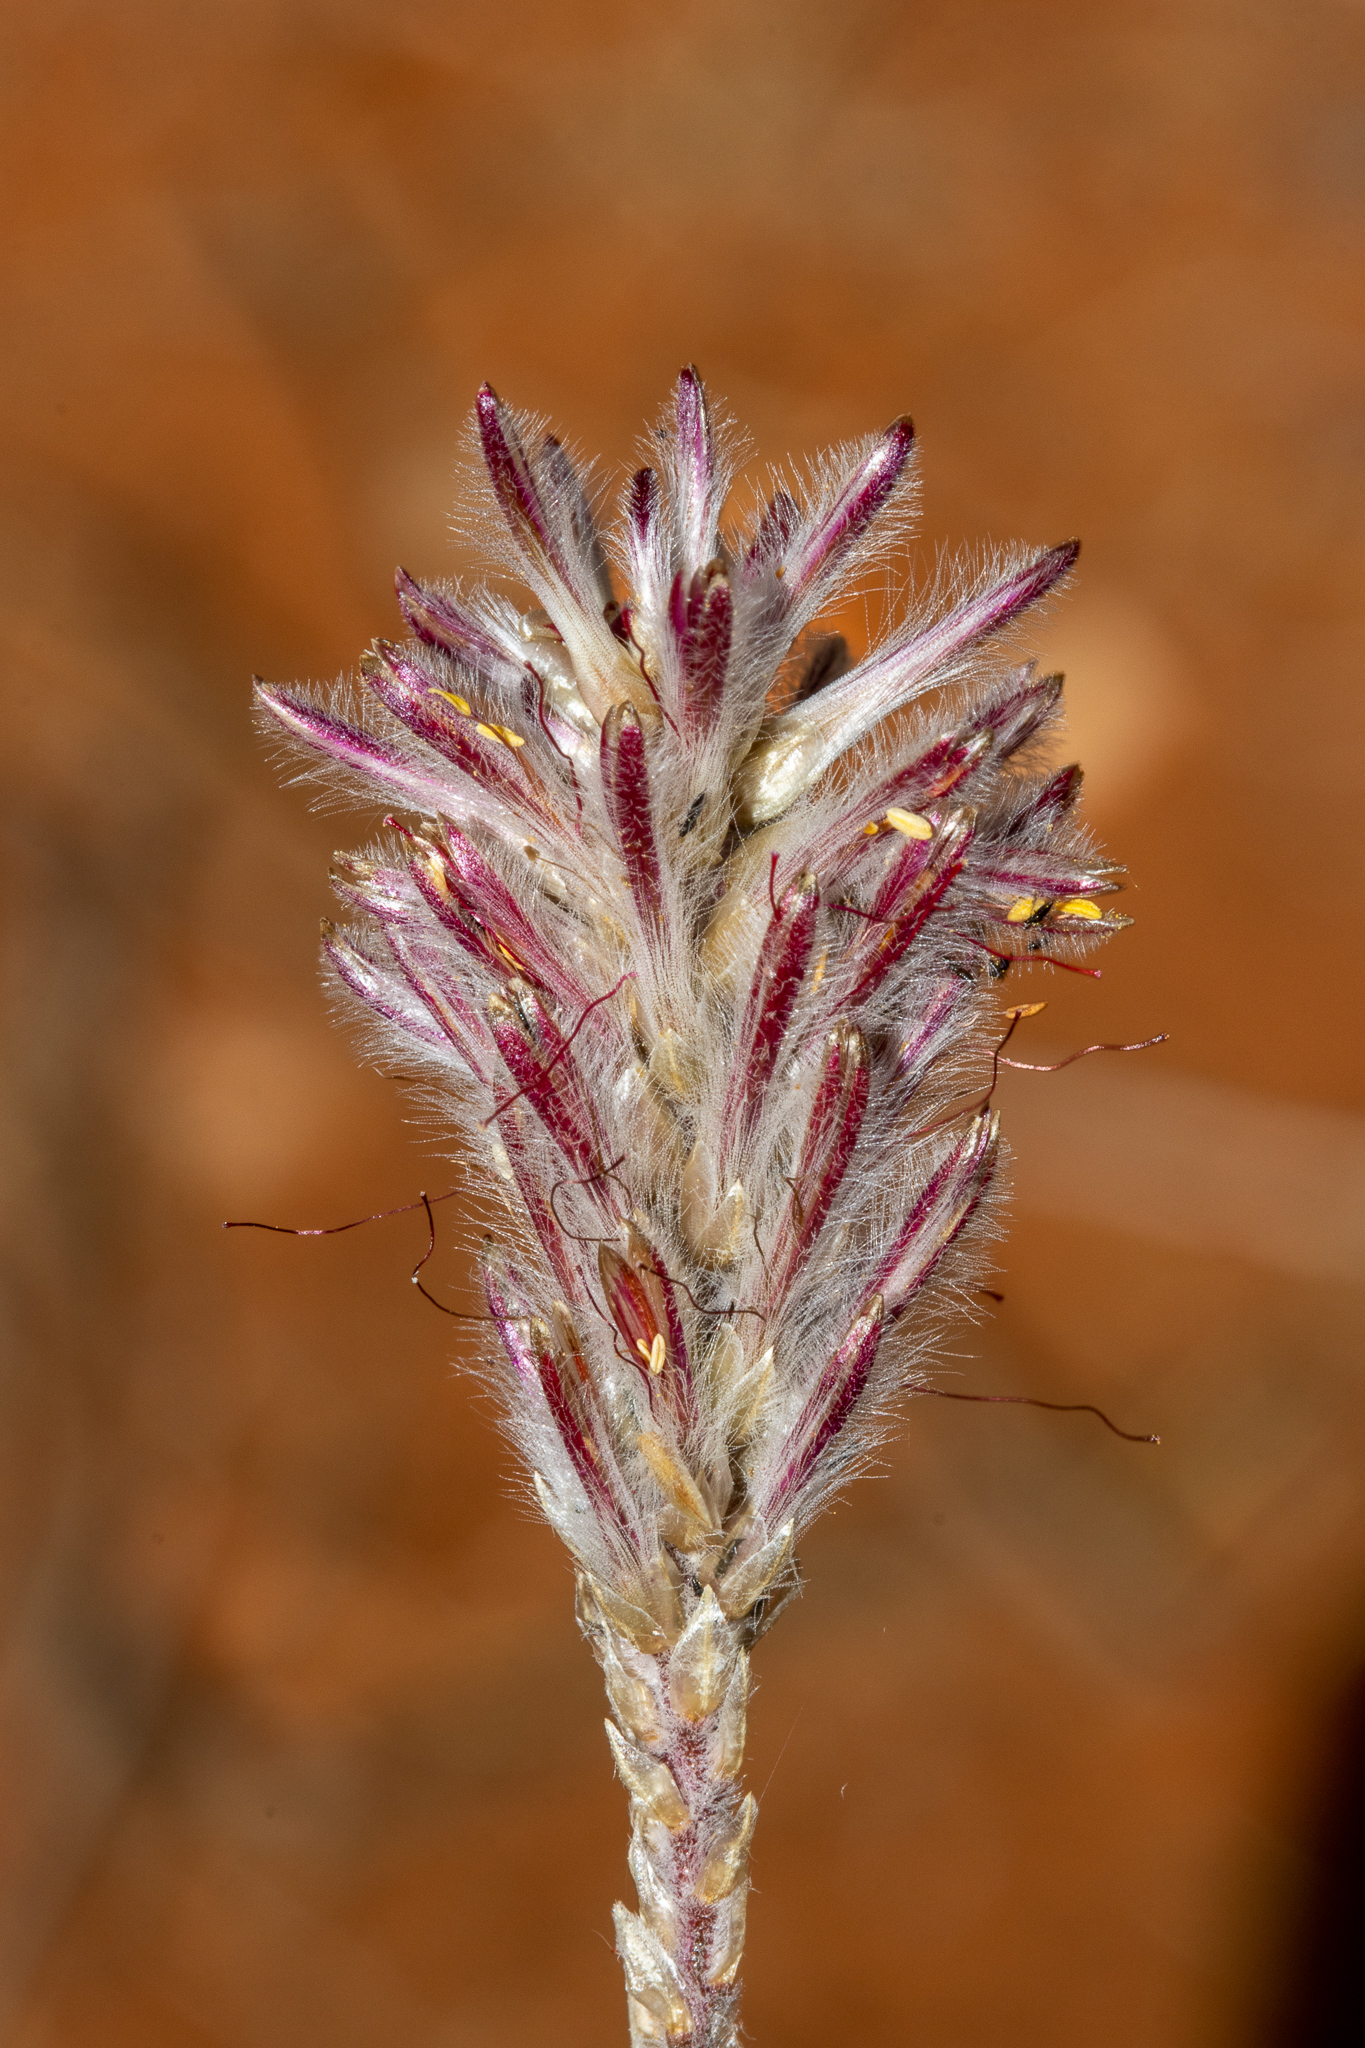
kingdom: Plantae
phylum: Tracheophyta
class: Magnoliopsida
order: Caryophyllales
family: Amaranthaceae
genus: Ptilotus
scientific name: Ptilotus polystachyus
